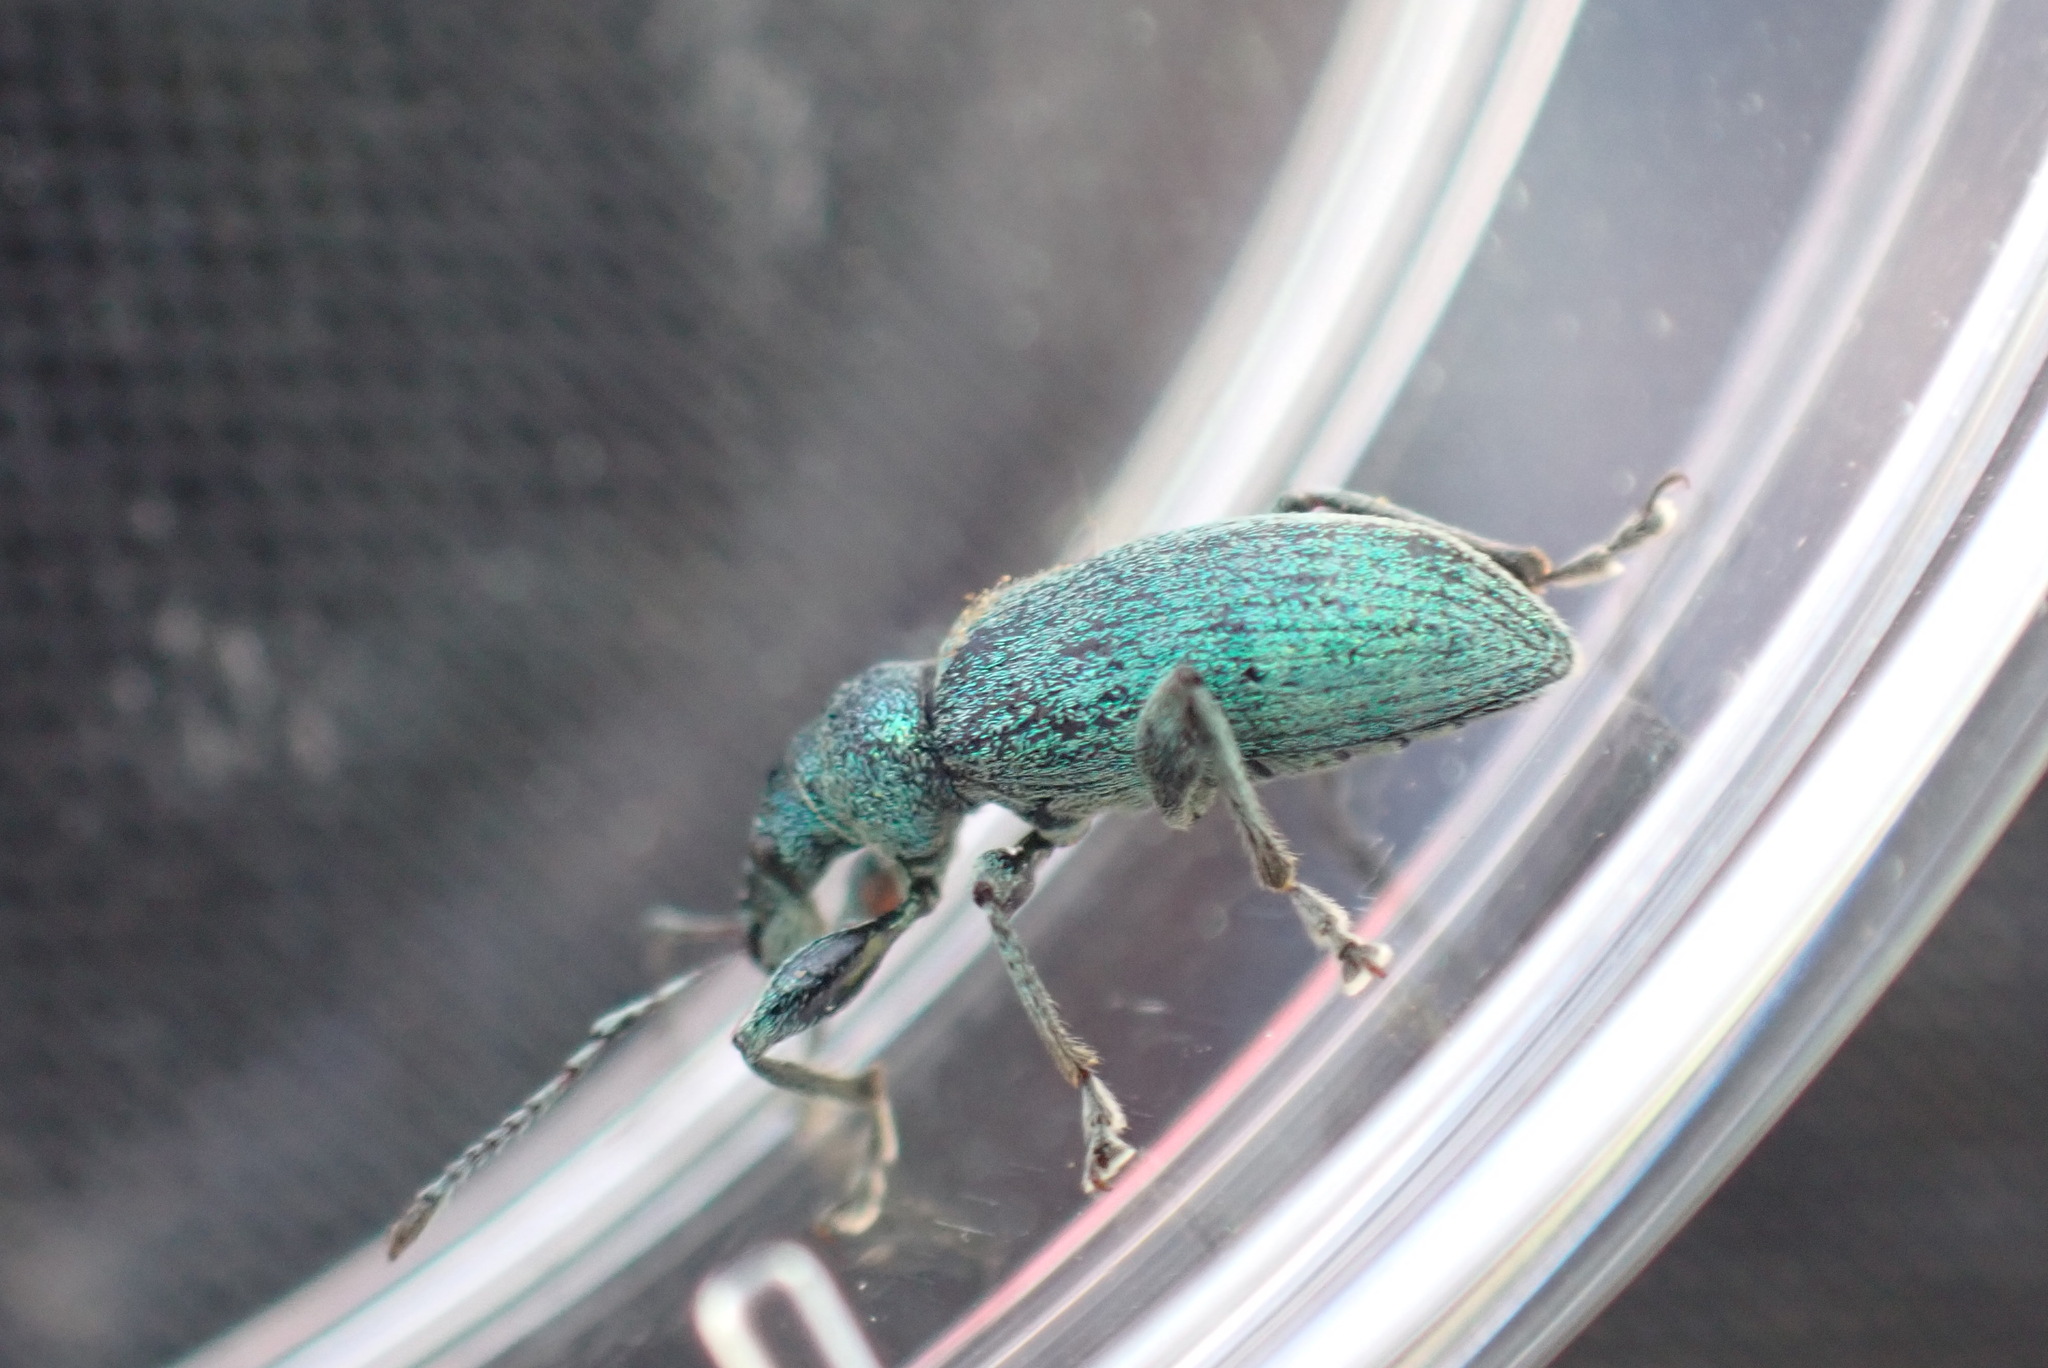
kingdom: Animalia
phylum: Arthropoda
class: Insecta
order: Coleoptera
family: Curculionidae
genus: Phyllobius
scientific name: Phyllobius pomaceus
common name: Green nettle weevil
